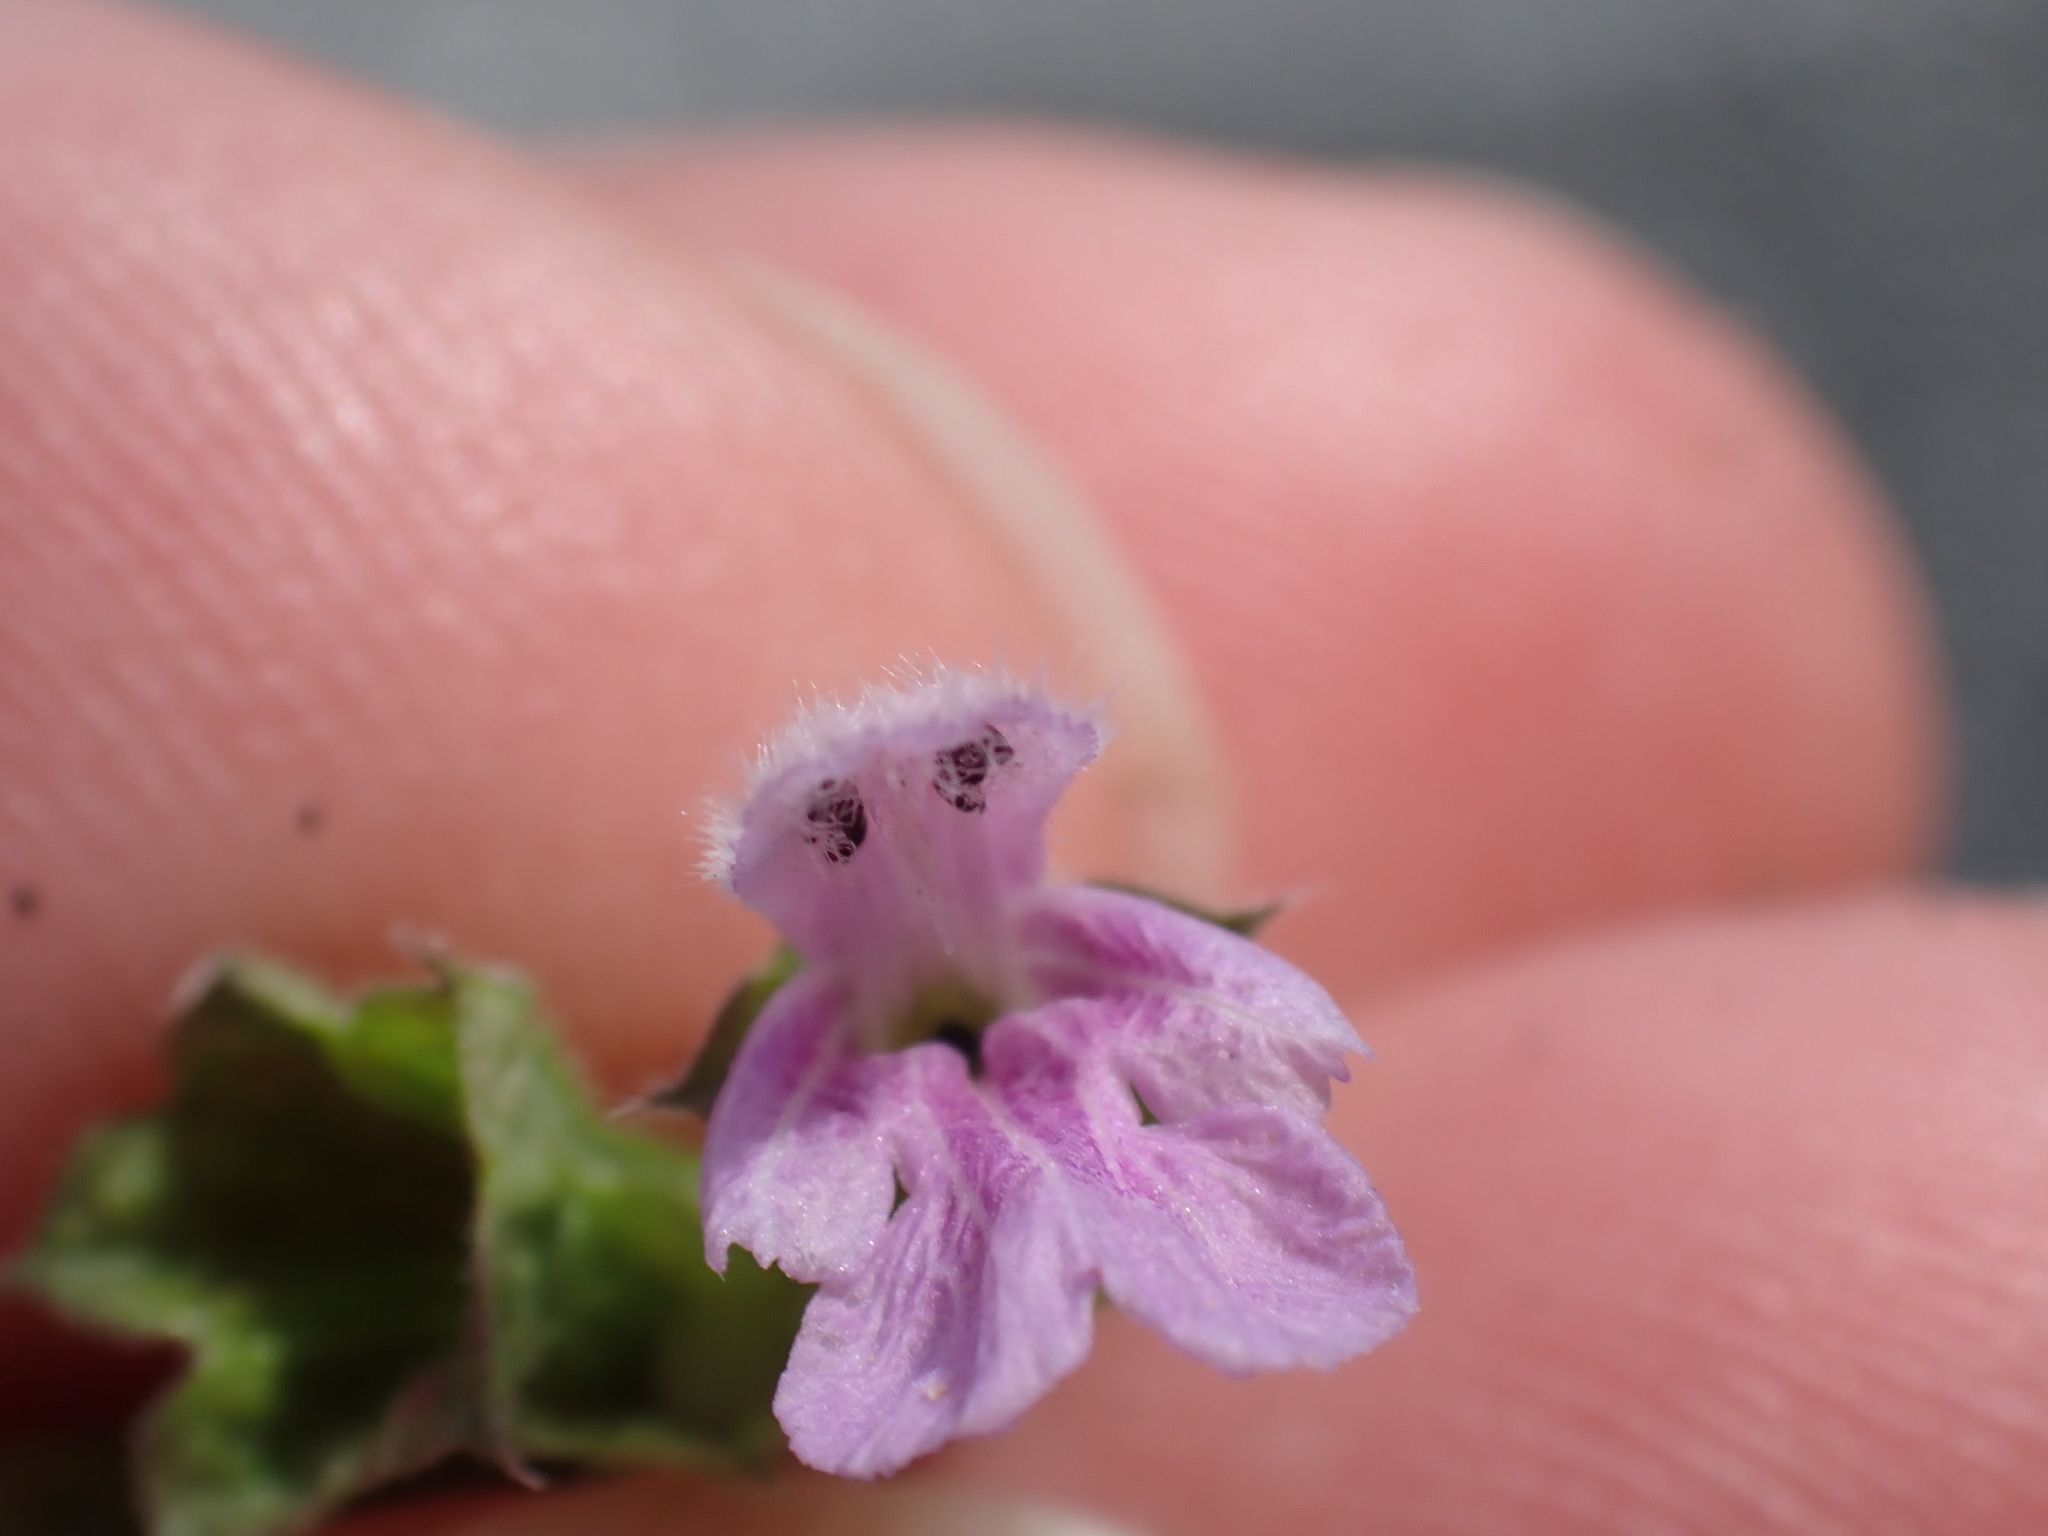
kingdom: Plantae
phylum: Tracheophyta
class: Magnoliopsida
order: Lamiales
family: Lamiaceae
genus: Ballota
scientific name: Ballota nigra
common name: Black horehound
